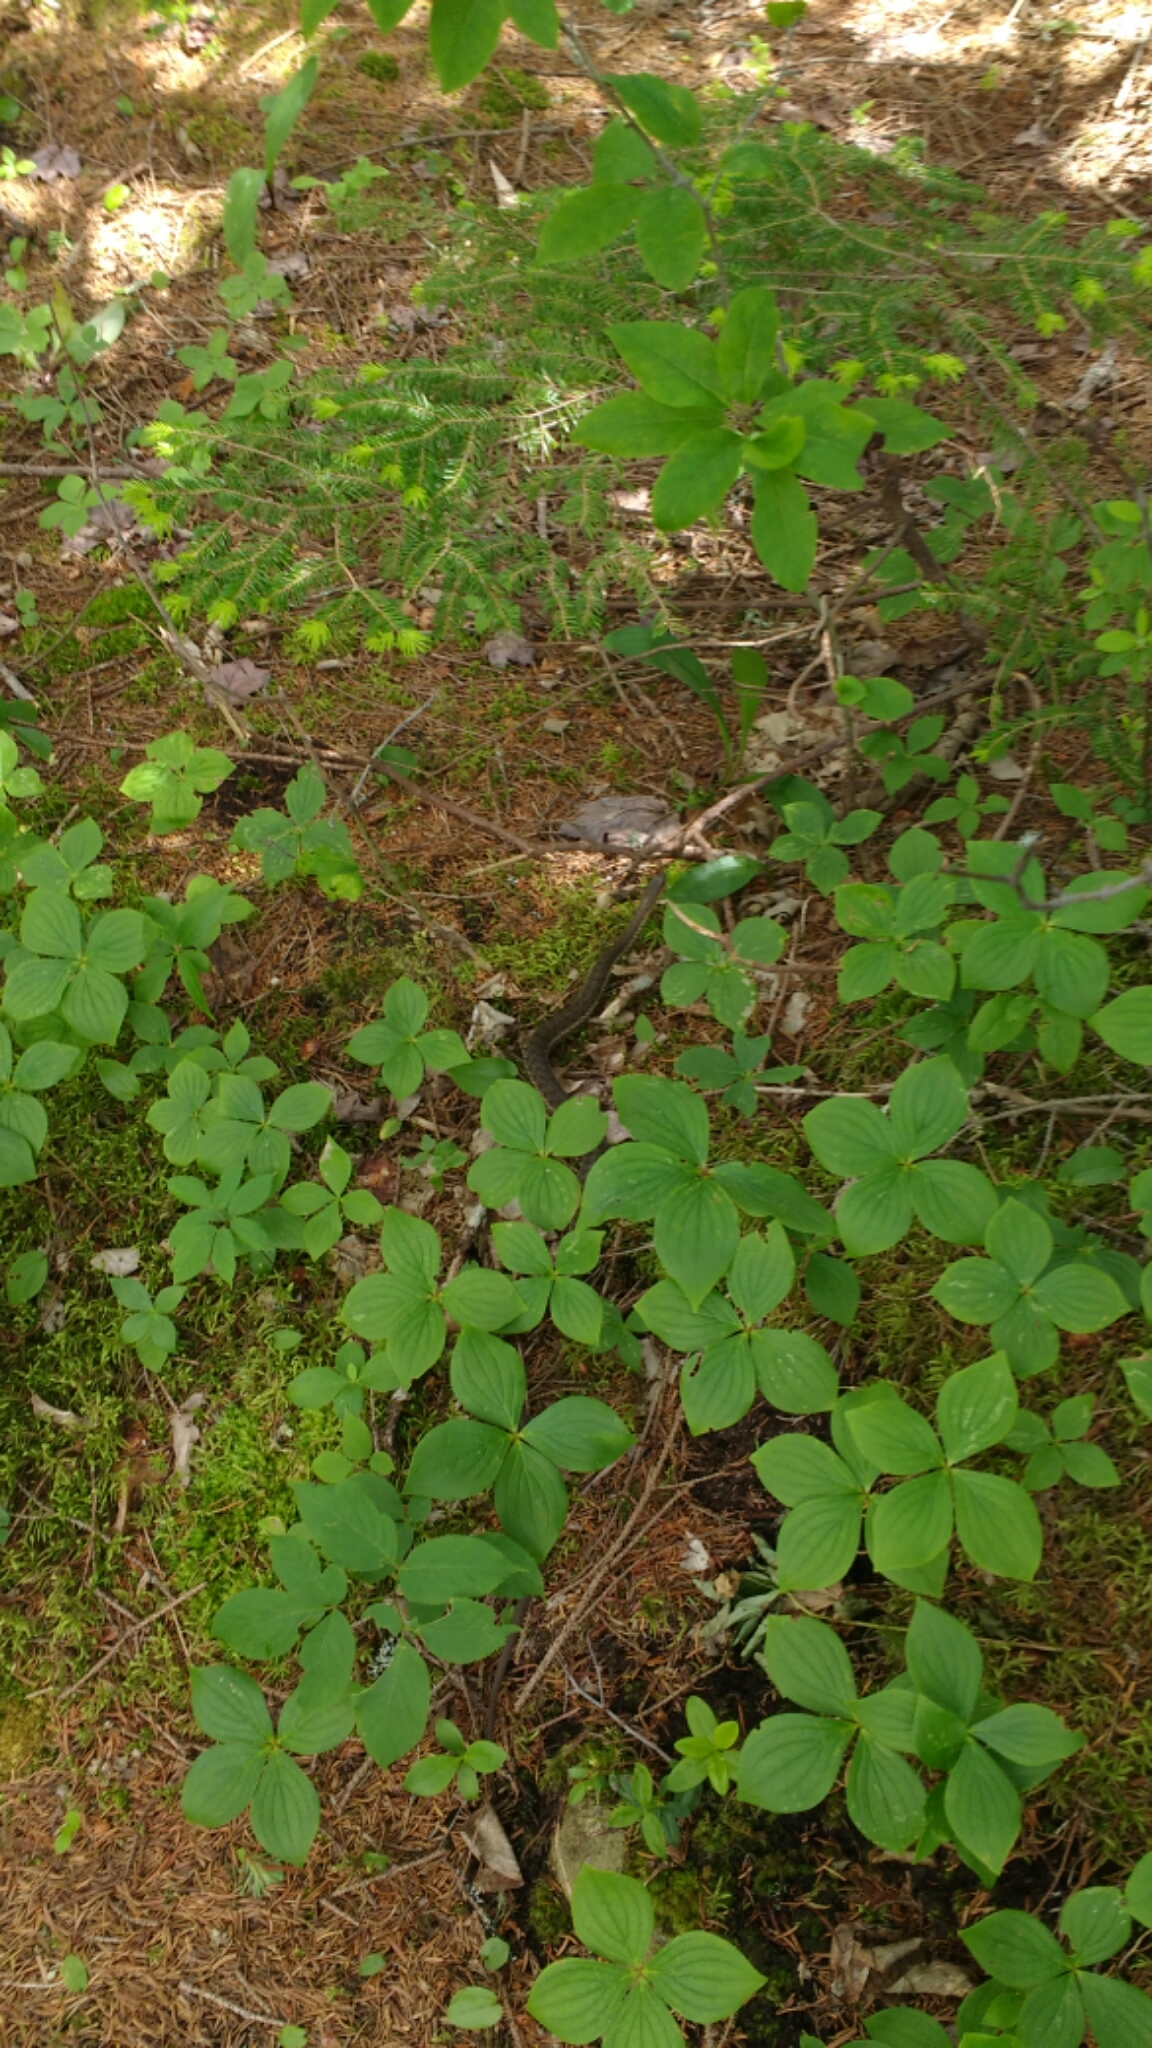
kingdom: Animalia
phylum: Chordata
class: Squamata
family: Colubridae
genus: Thamnophis
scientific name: Thamnophis sirtalis
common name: Common garter snake
